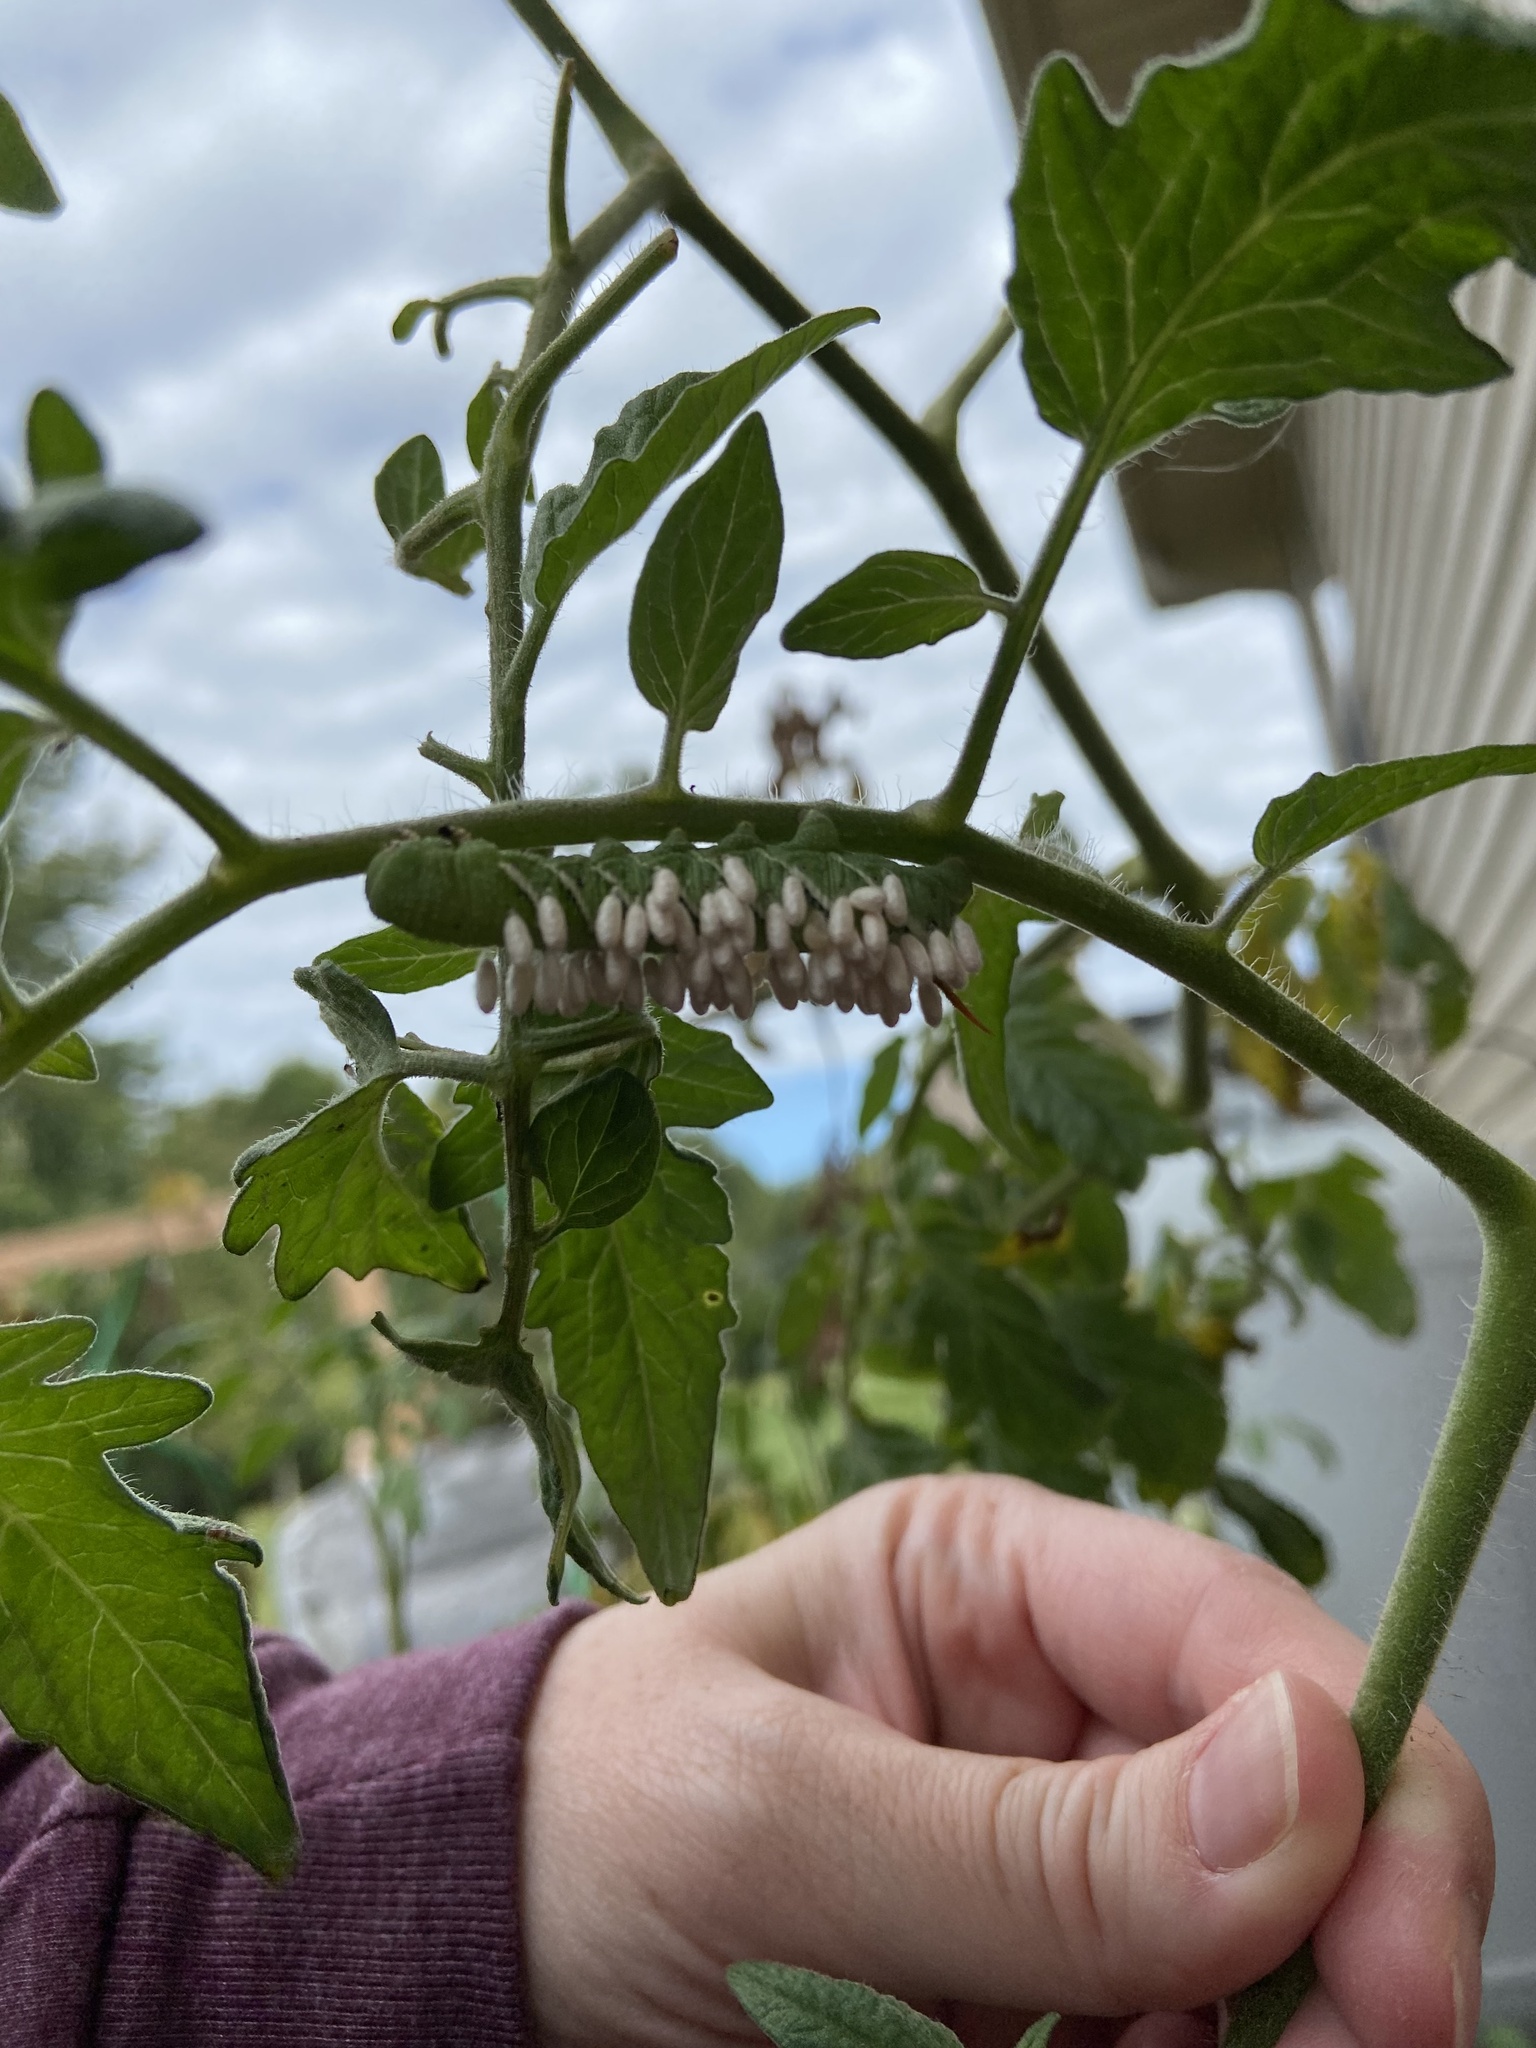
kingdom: Animalia
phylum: Arthropoda
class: Insecta
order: Hymenoptera
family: Braconidae
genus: Cotesia
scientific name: Cotesia congregata
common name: Hornworm parasitoid wasp
